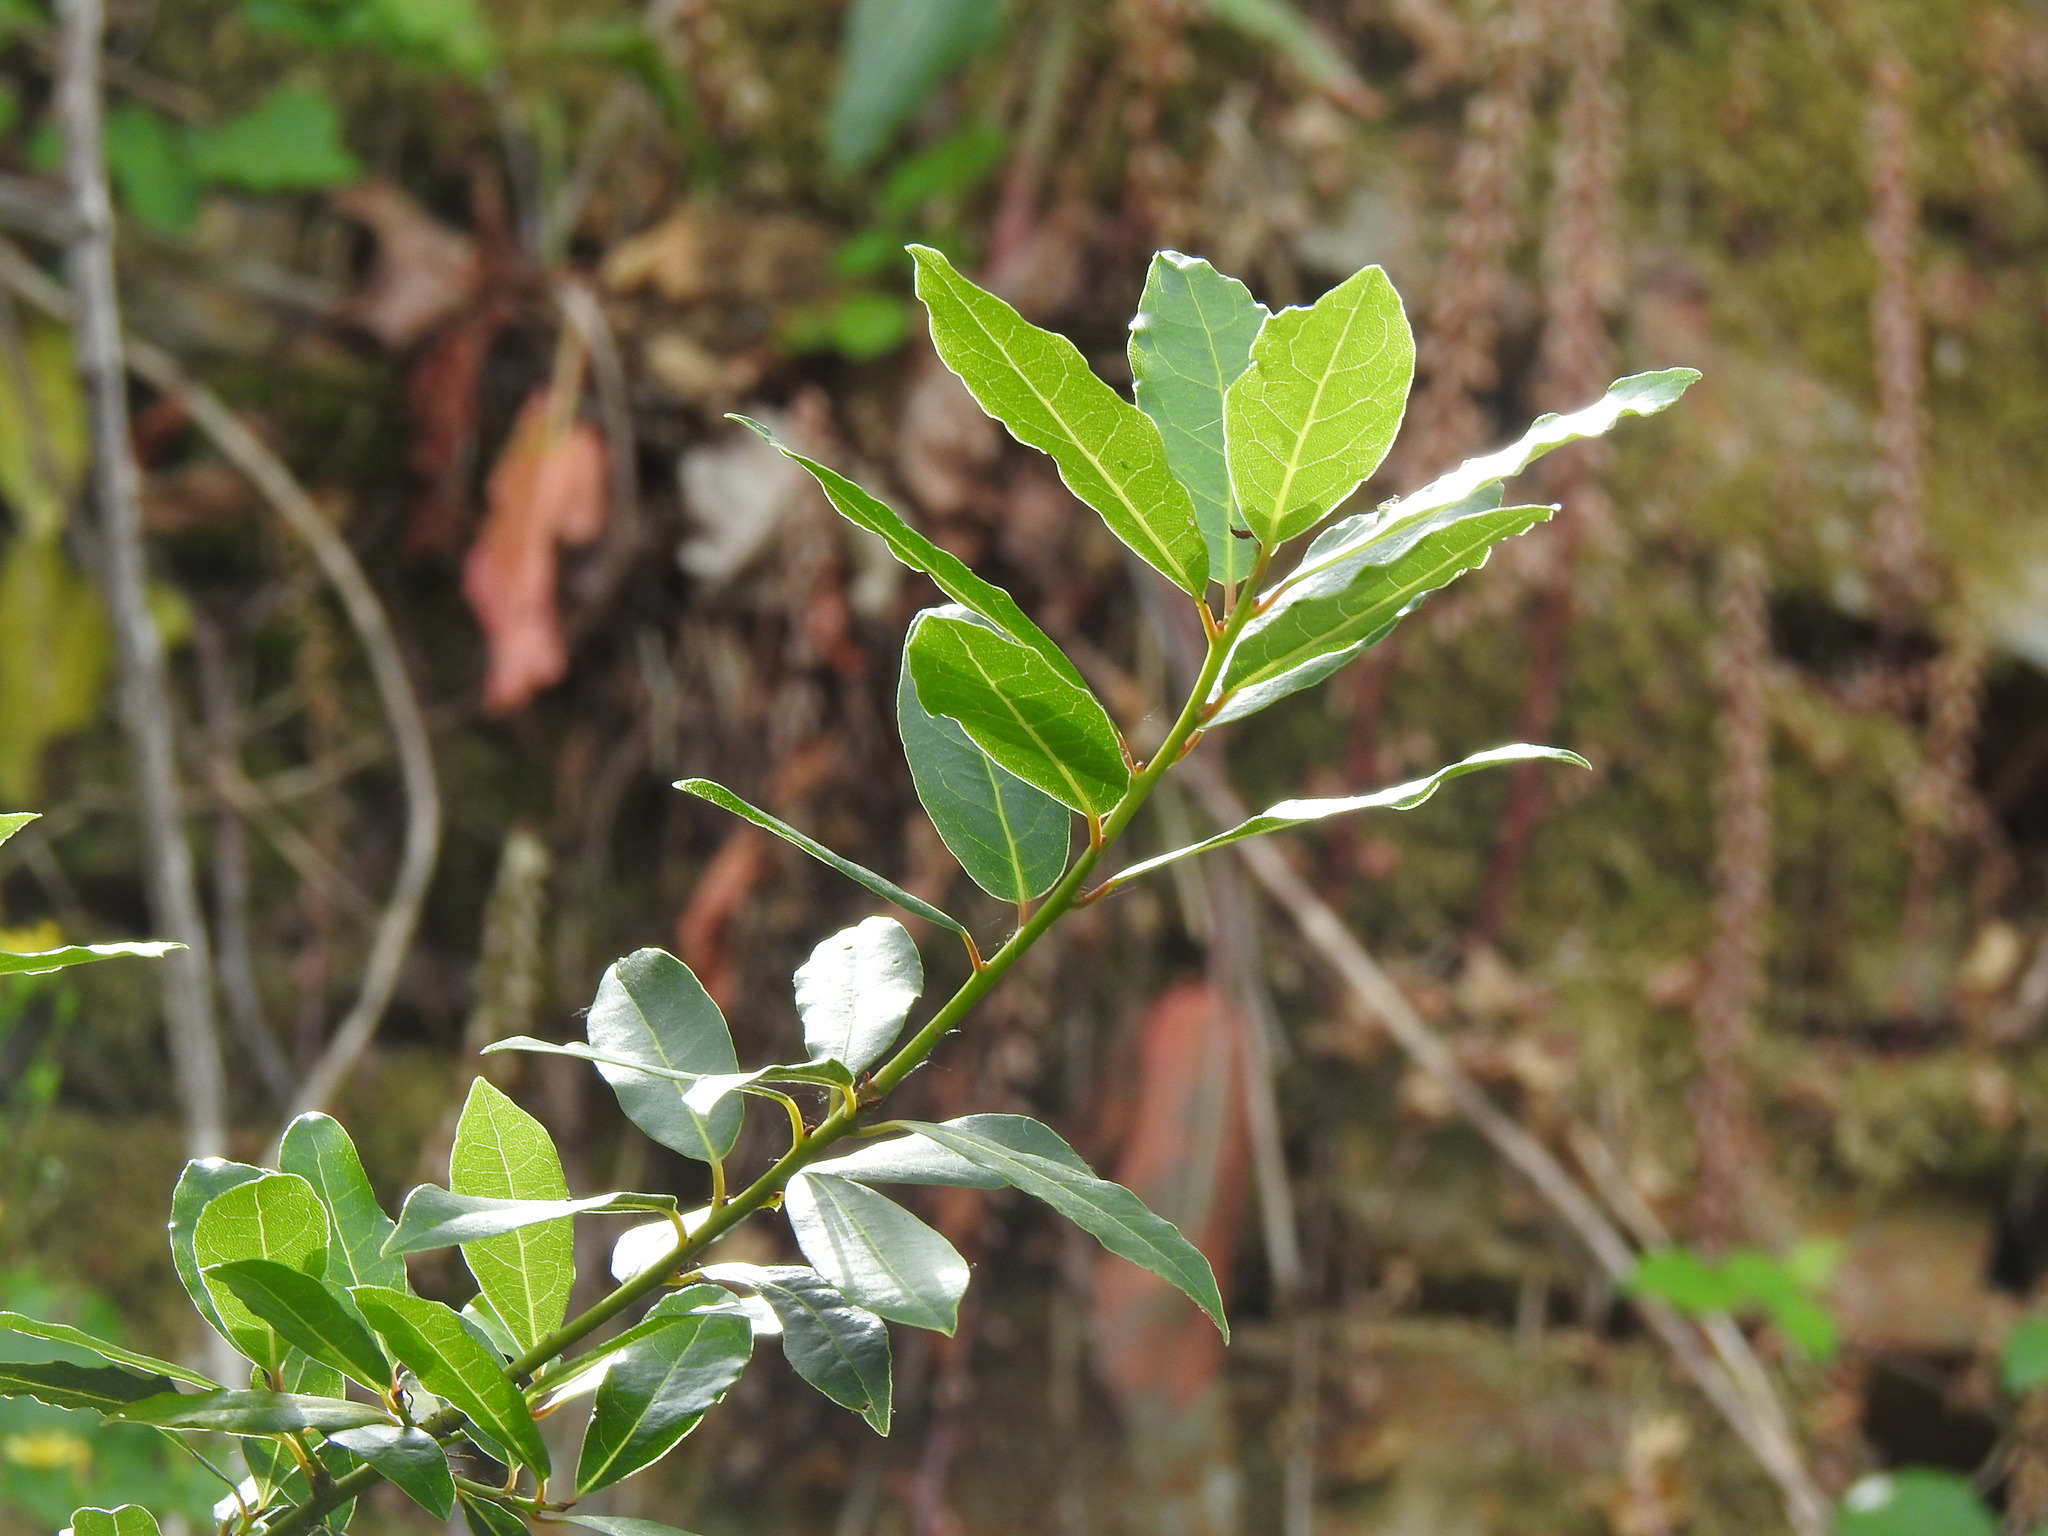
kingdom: Plantae
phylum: Tracheophyta
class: Magnoliopsida
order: Laurales
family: Lauraceae
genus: Laurus
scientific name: Laurus nobilis
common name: Bay
